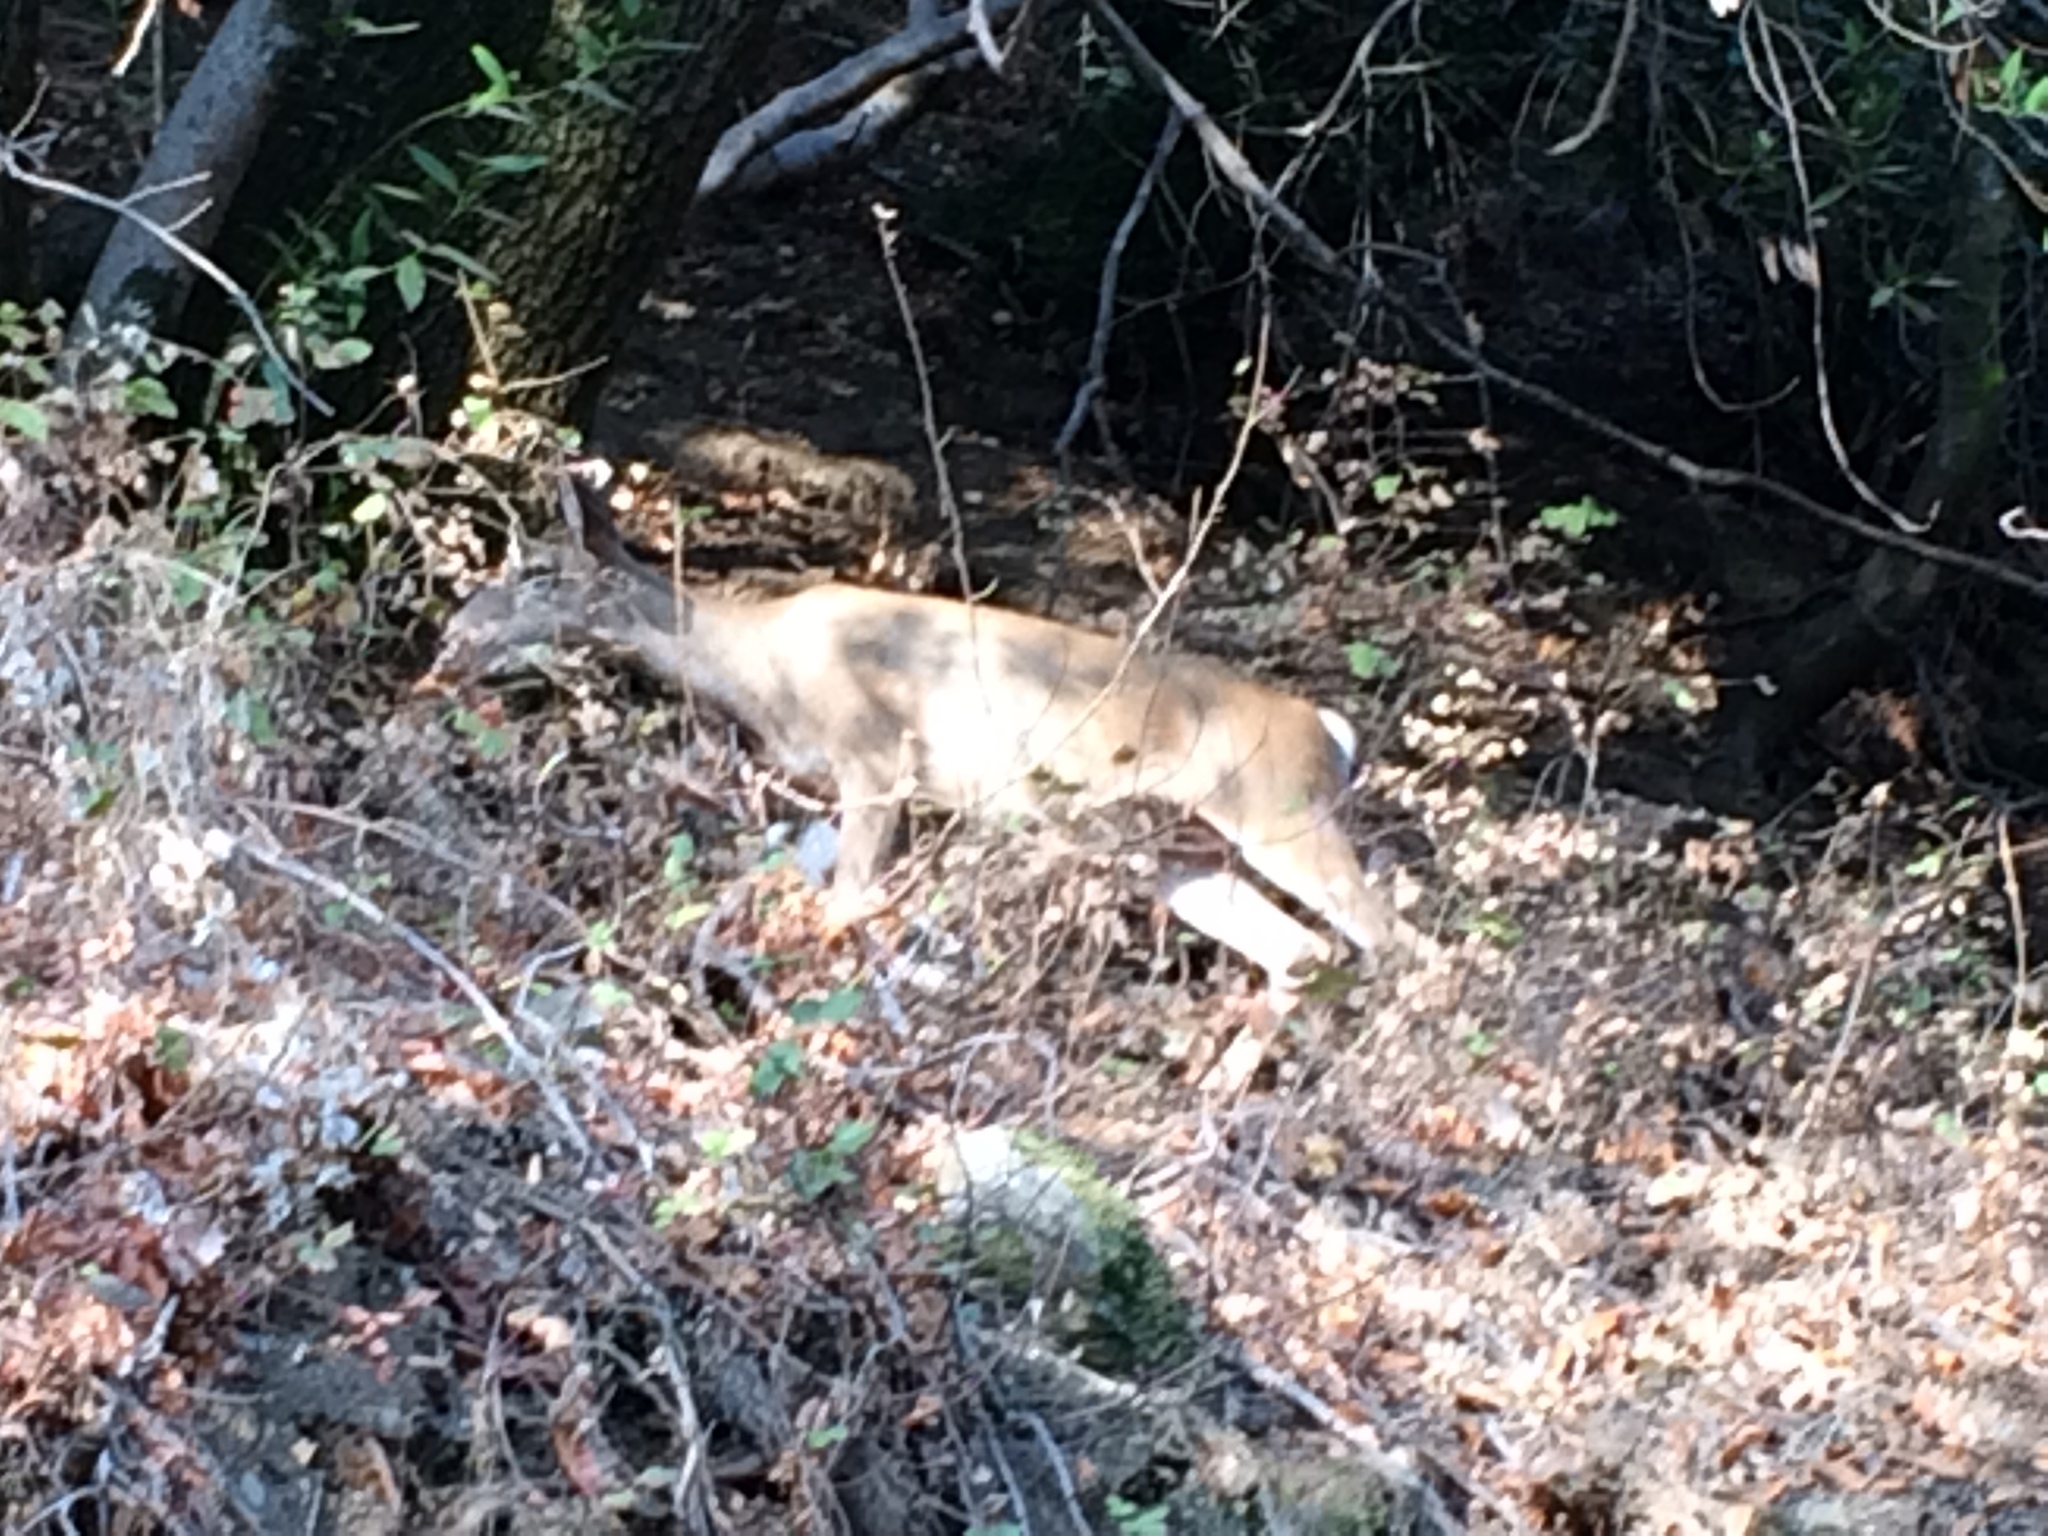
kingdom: Animalia
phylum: Chordata
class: Mammalia
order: Artiodactyla
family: Cervidae
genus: Odocoileus
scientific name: Odocoileus hemionus
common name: Mule deer
